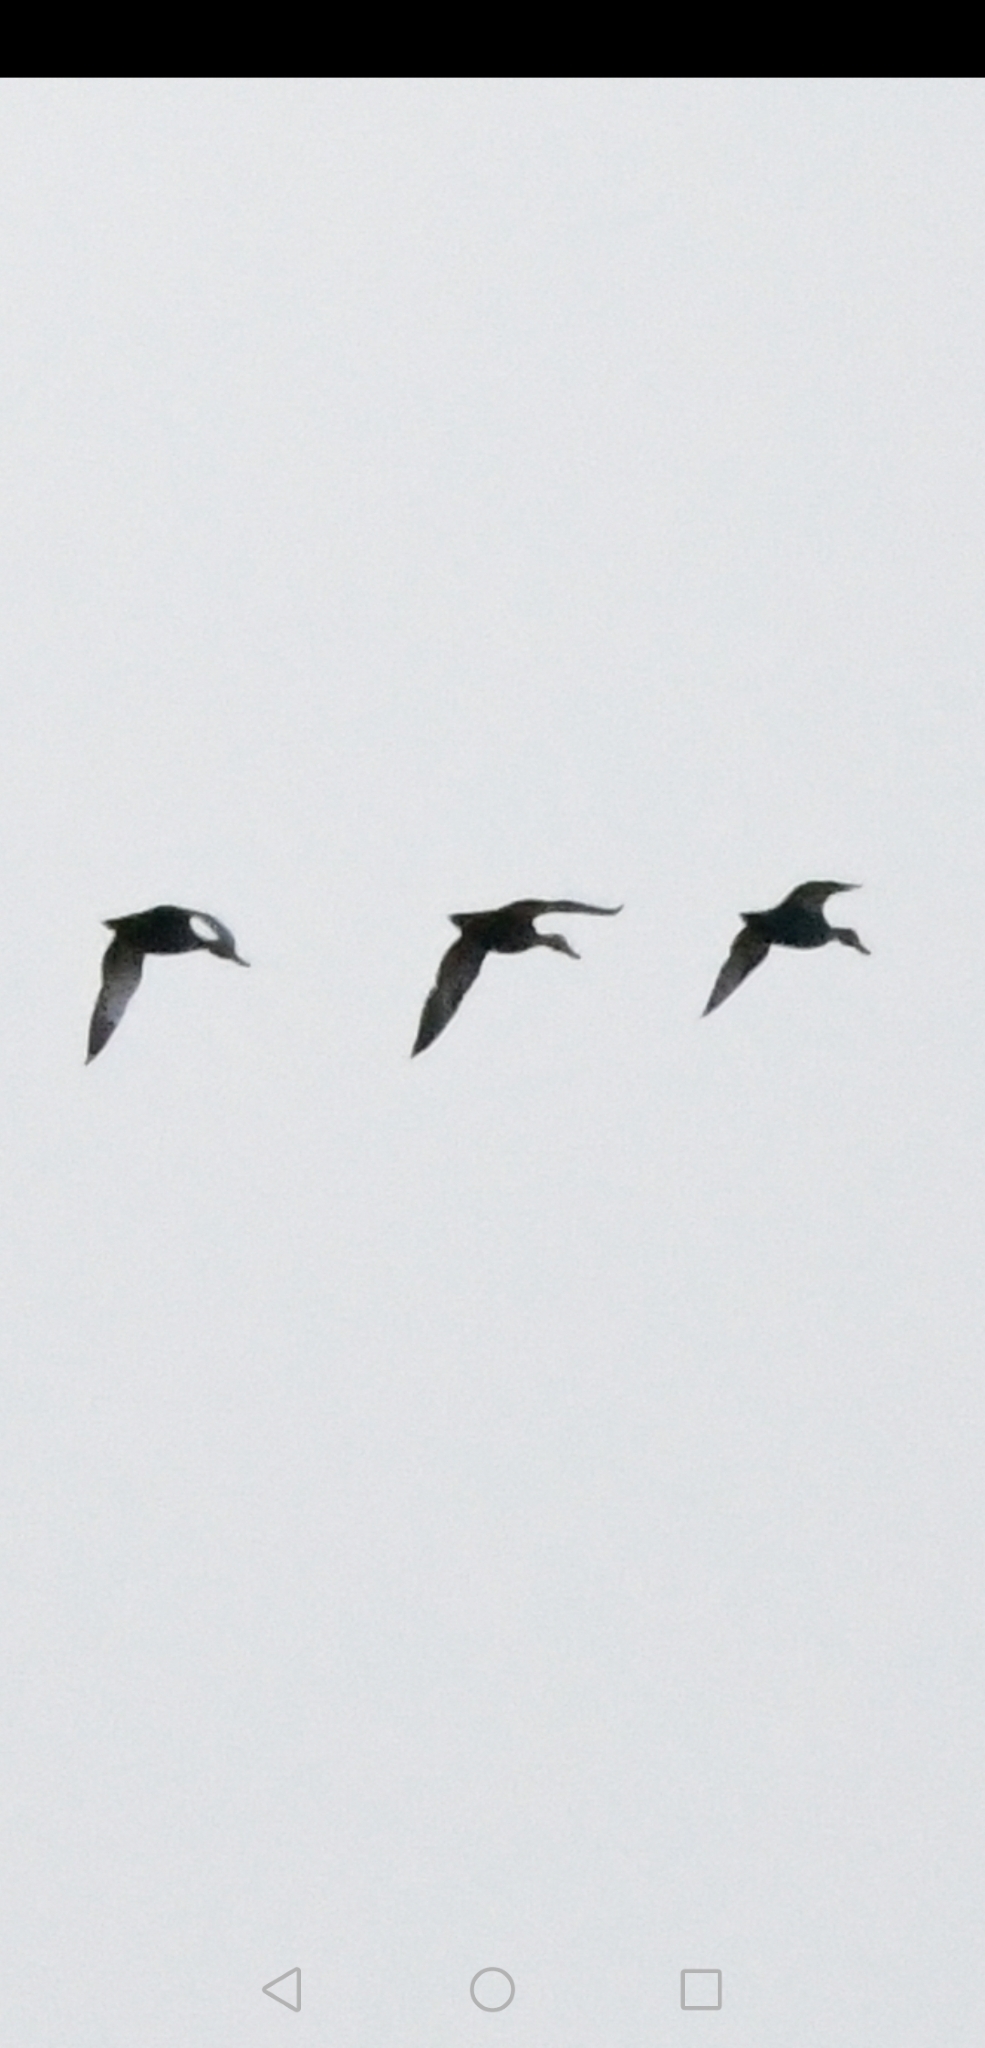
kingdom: Animalia
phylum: Chordata
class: Aves
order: Anseriformes
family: Anatidae
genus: Anas
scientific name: Anas platyrhynchos
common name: Mallard
